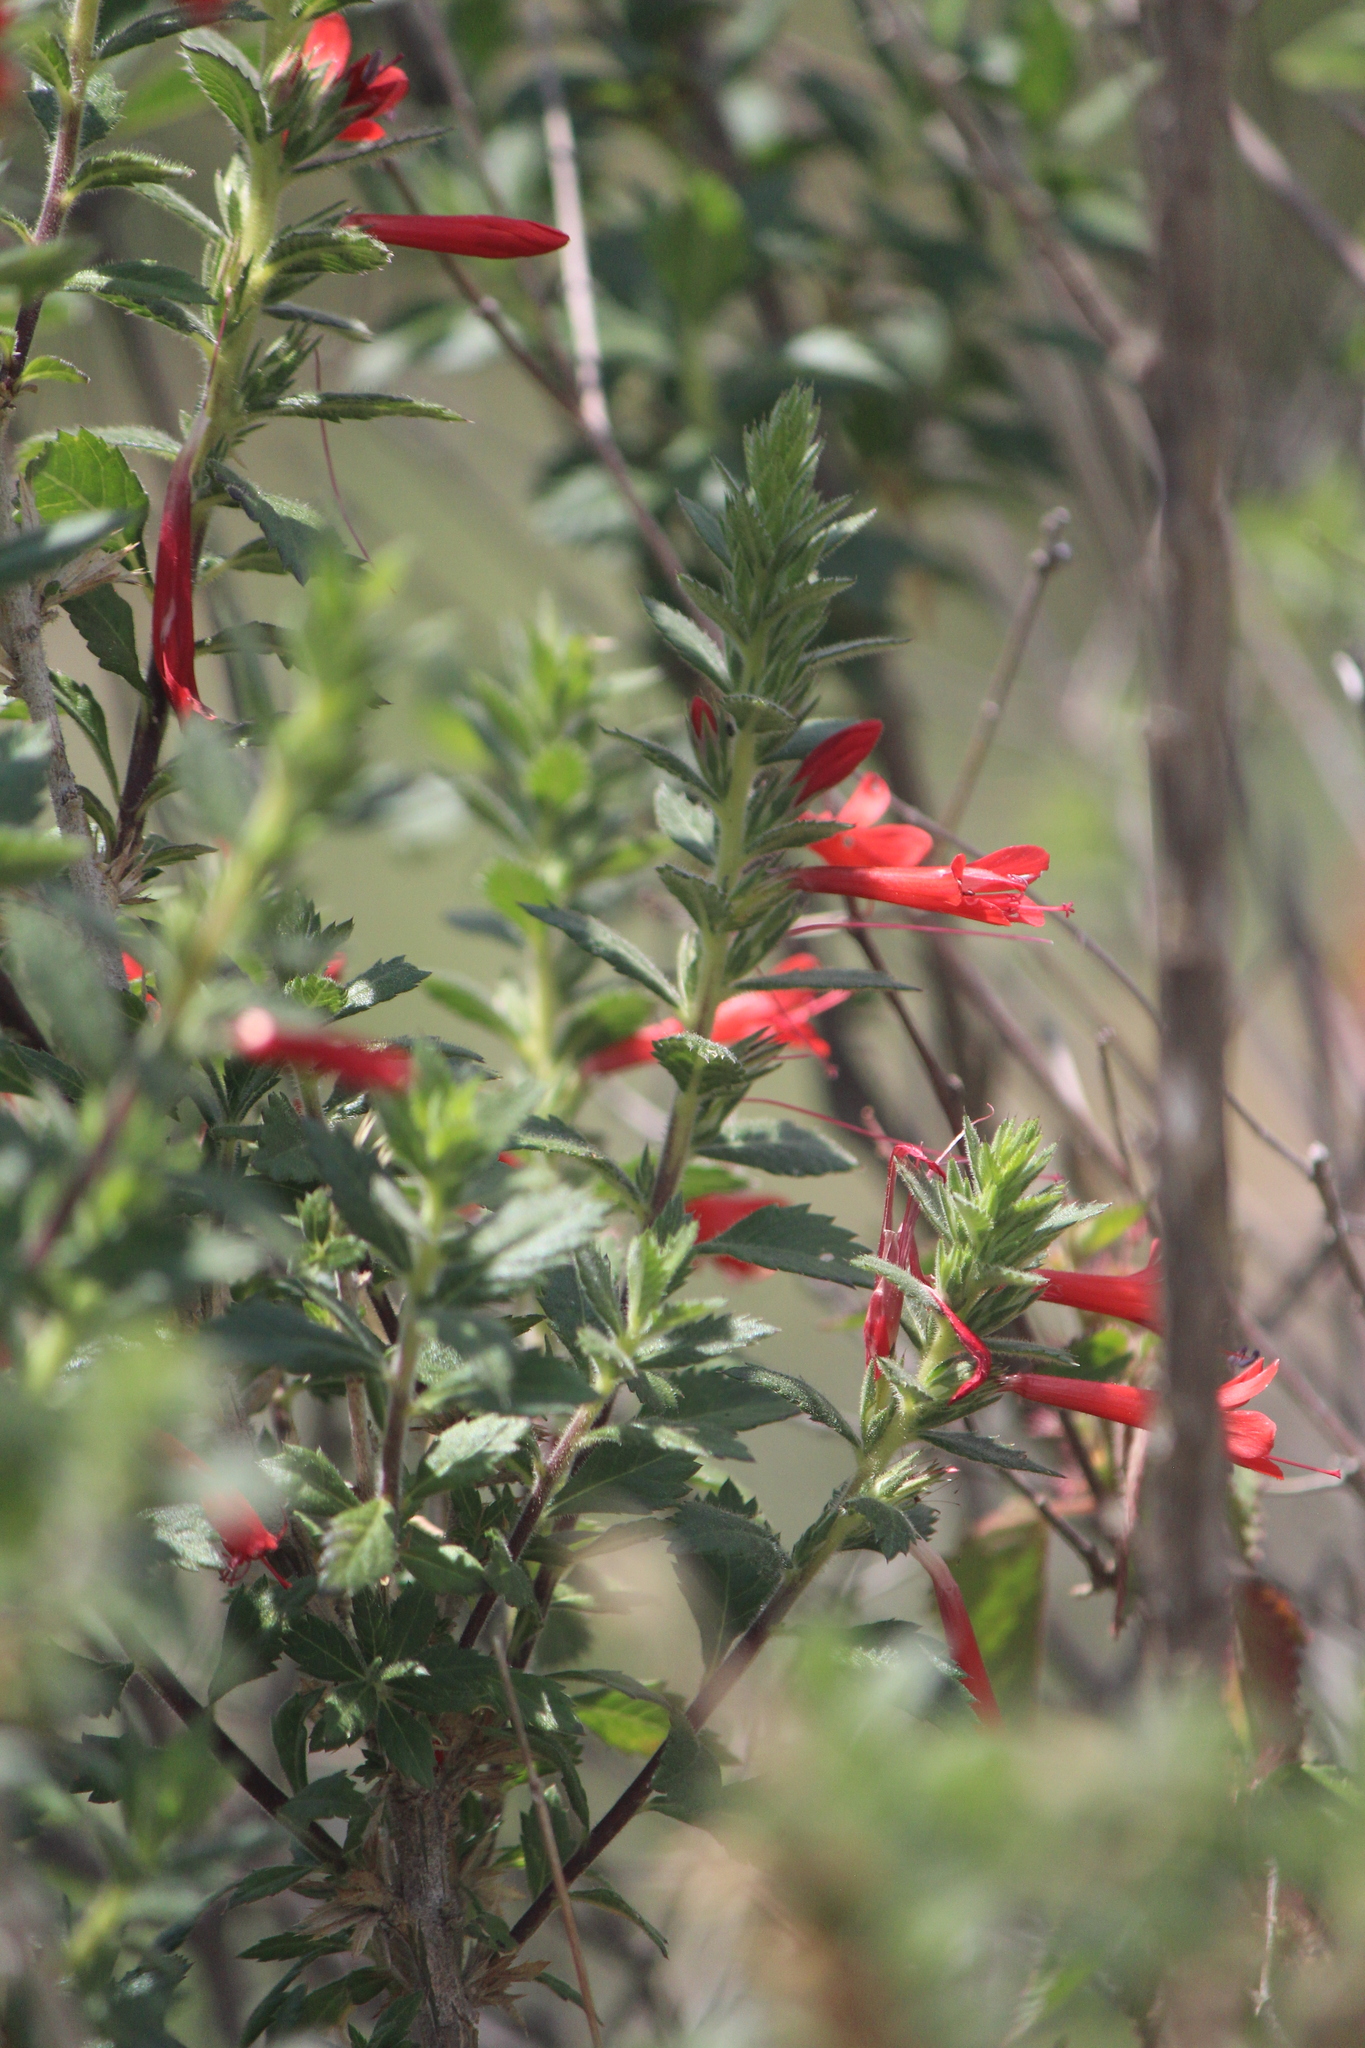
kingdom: Plantae
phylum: Tracheophyta
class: Magnoliopsida
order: Ericales
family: Polemoniaceae
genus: Loeselia
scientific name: Loeselia mexicana
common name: Mexican false calico
